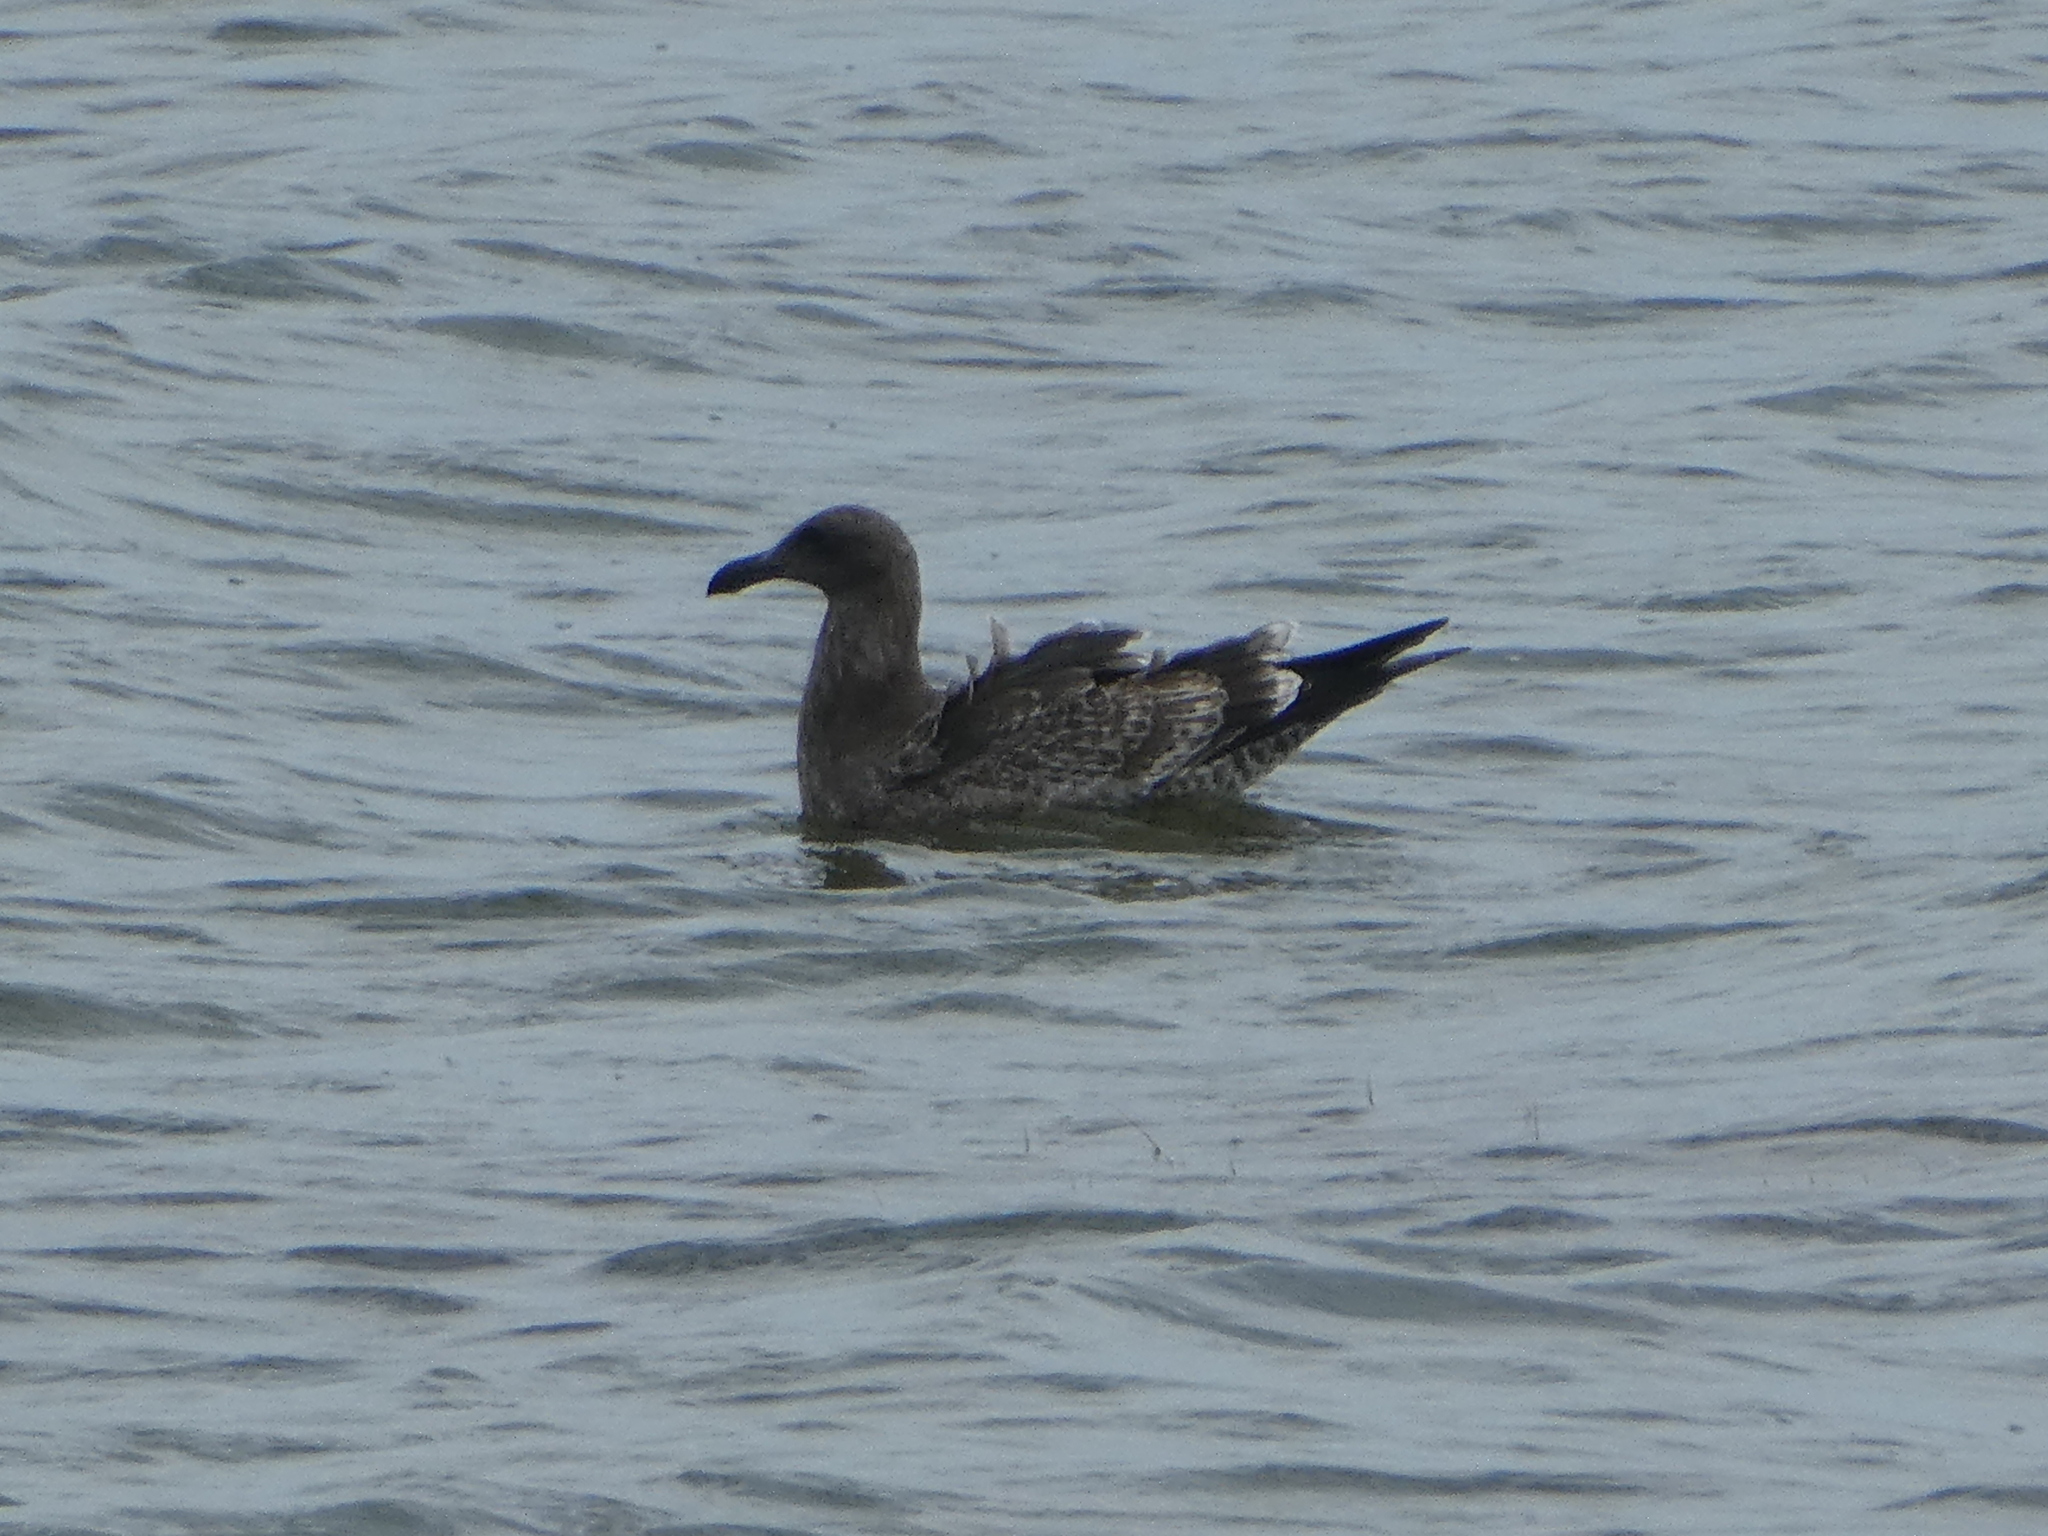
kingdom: Animalia
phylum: Chordata
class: Aves
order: Charadriiformes
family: Laridae
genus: Larus
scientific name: Larus occidentalis
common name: Western gull
